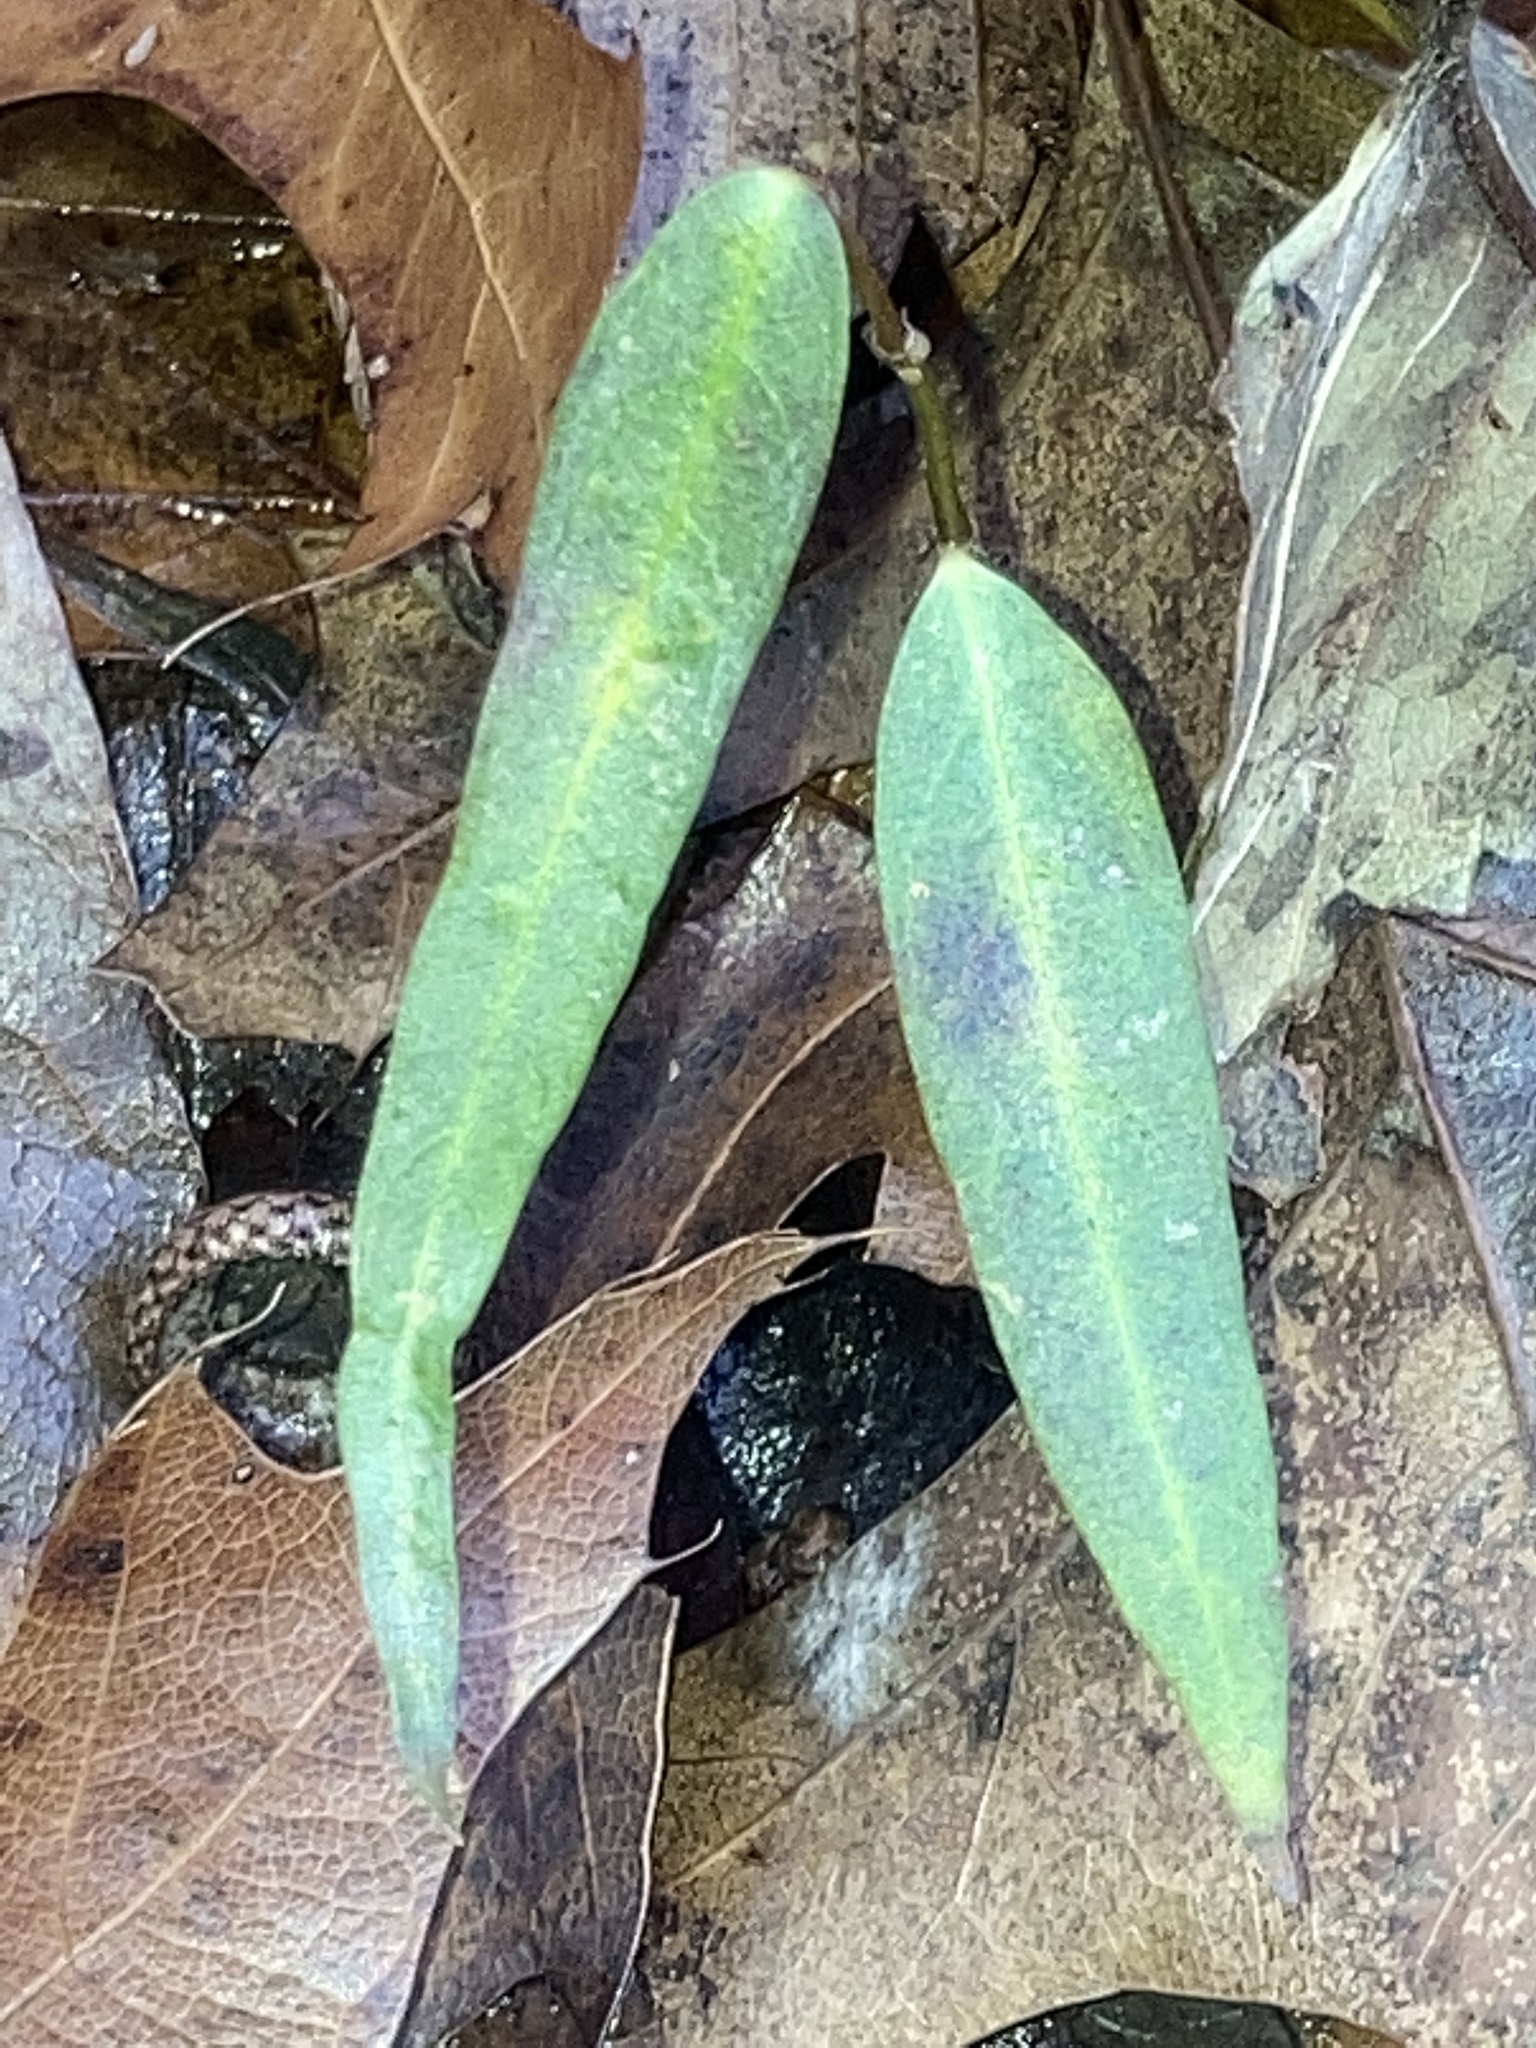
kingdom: Plantae
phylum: Tracheophyta
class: Magnoliopsida
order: Gentianales
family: Apocynaceae
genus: Thyrsanthella
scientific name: Thyrsanthella difformis
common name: Climbing dogbane
